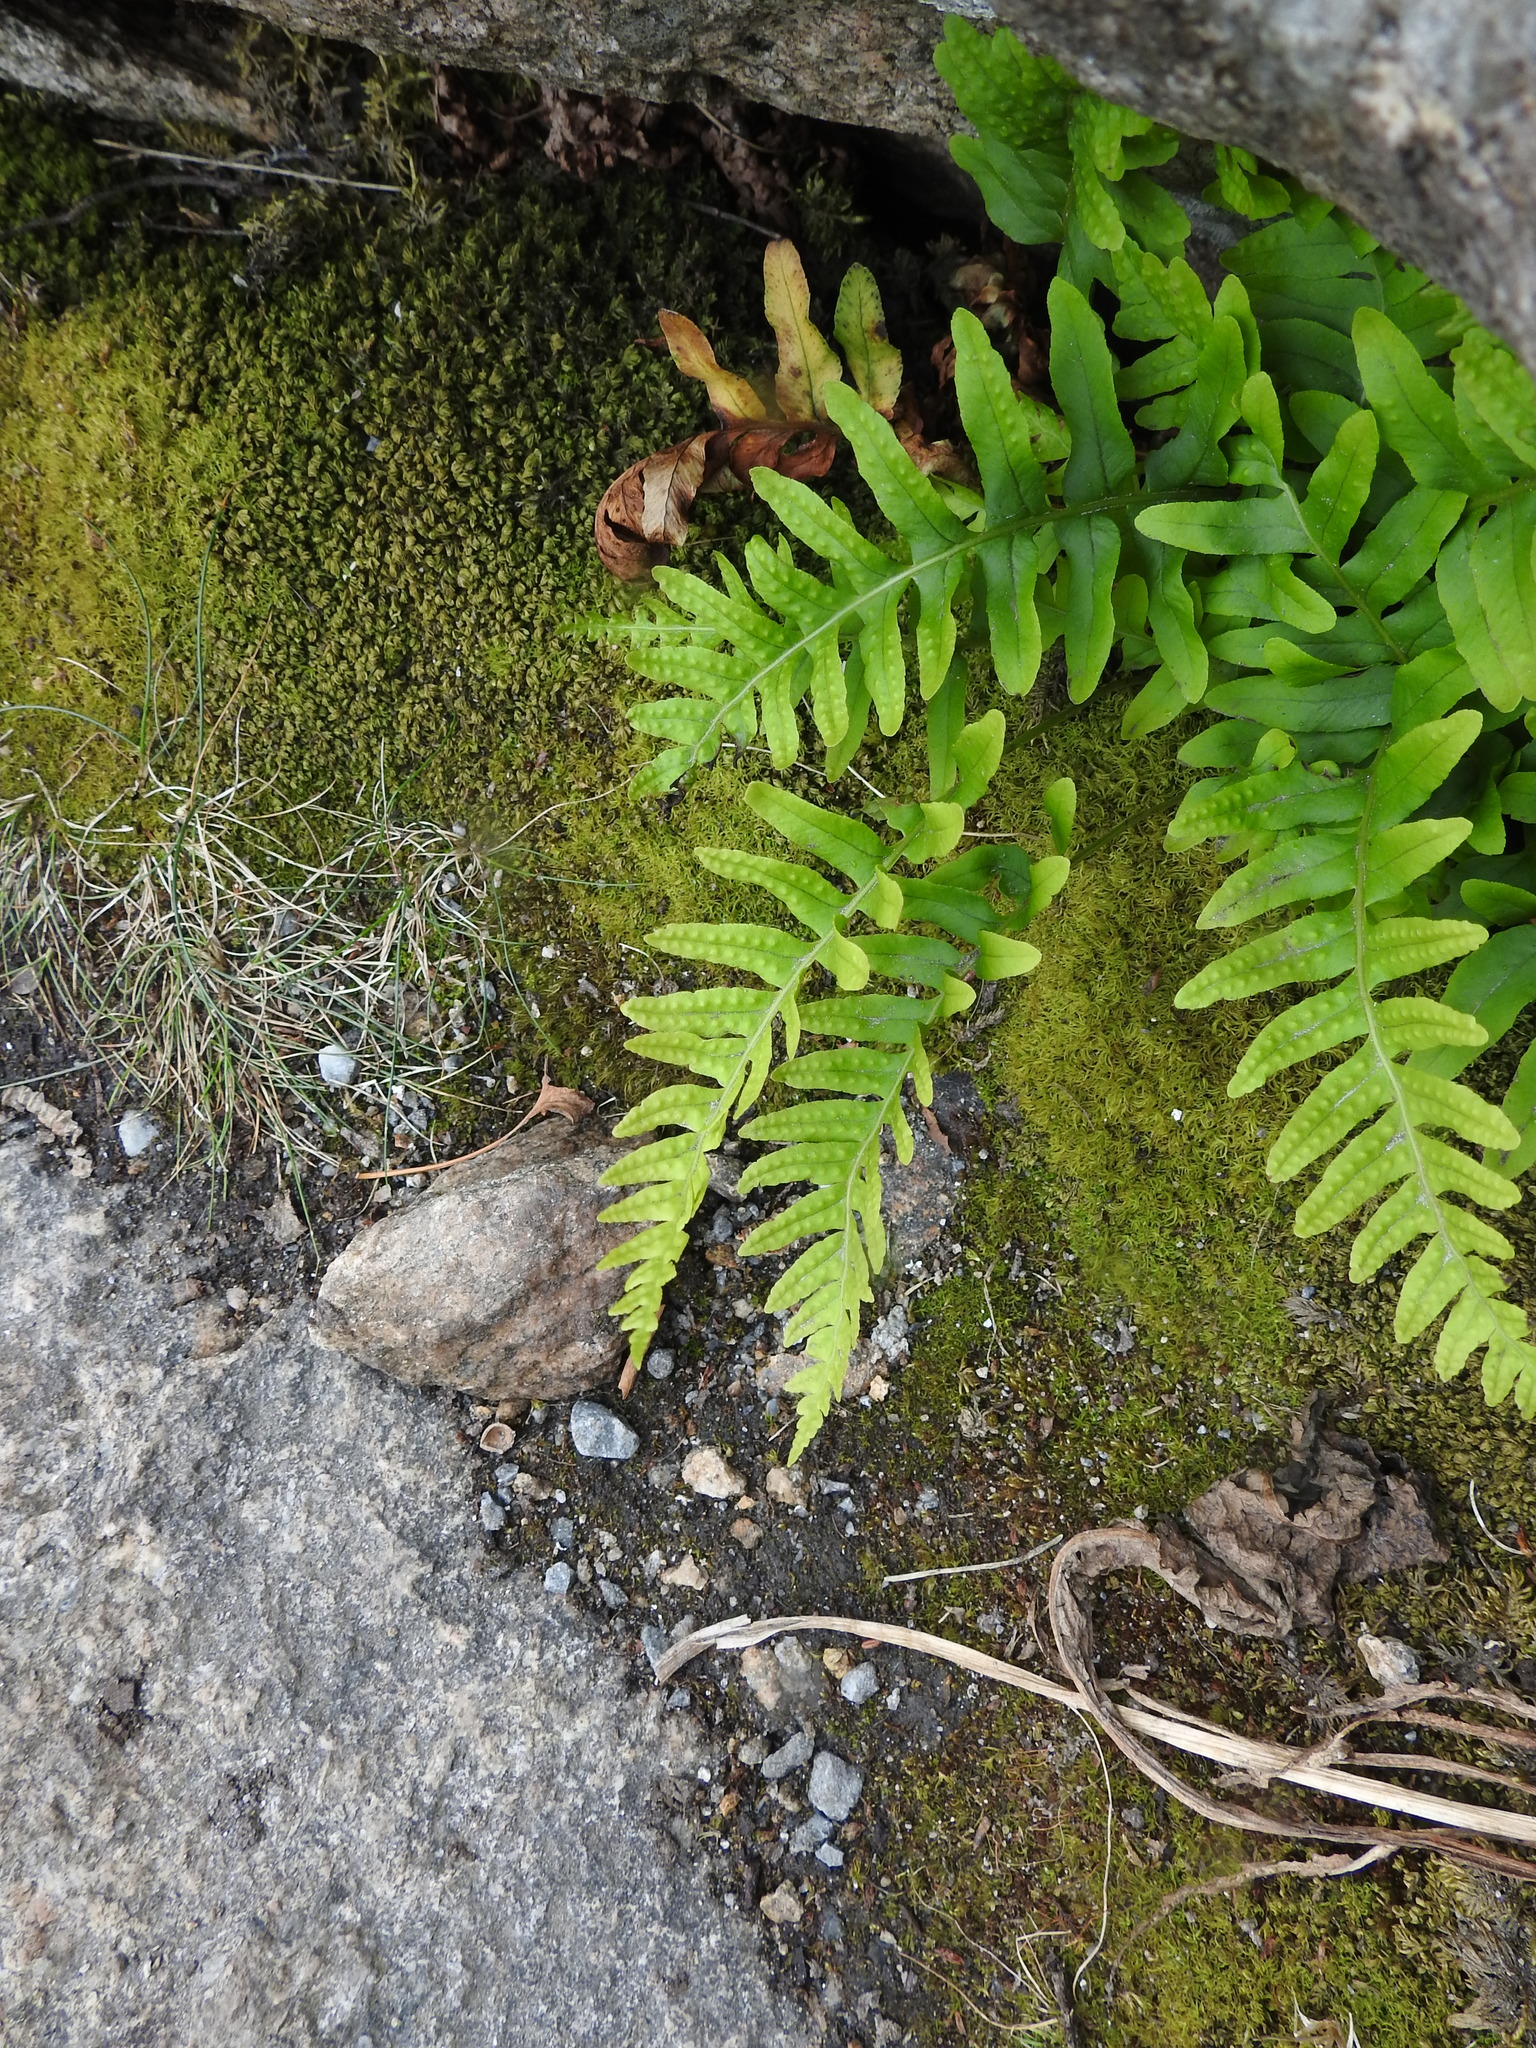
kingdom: Plantae
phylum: Tracheophyta
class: Polypodiopsida
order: Polypodiales
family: Polypodiaceae
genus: Polypodium
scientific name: Polypodium vulgare
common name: Common polypody
